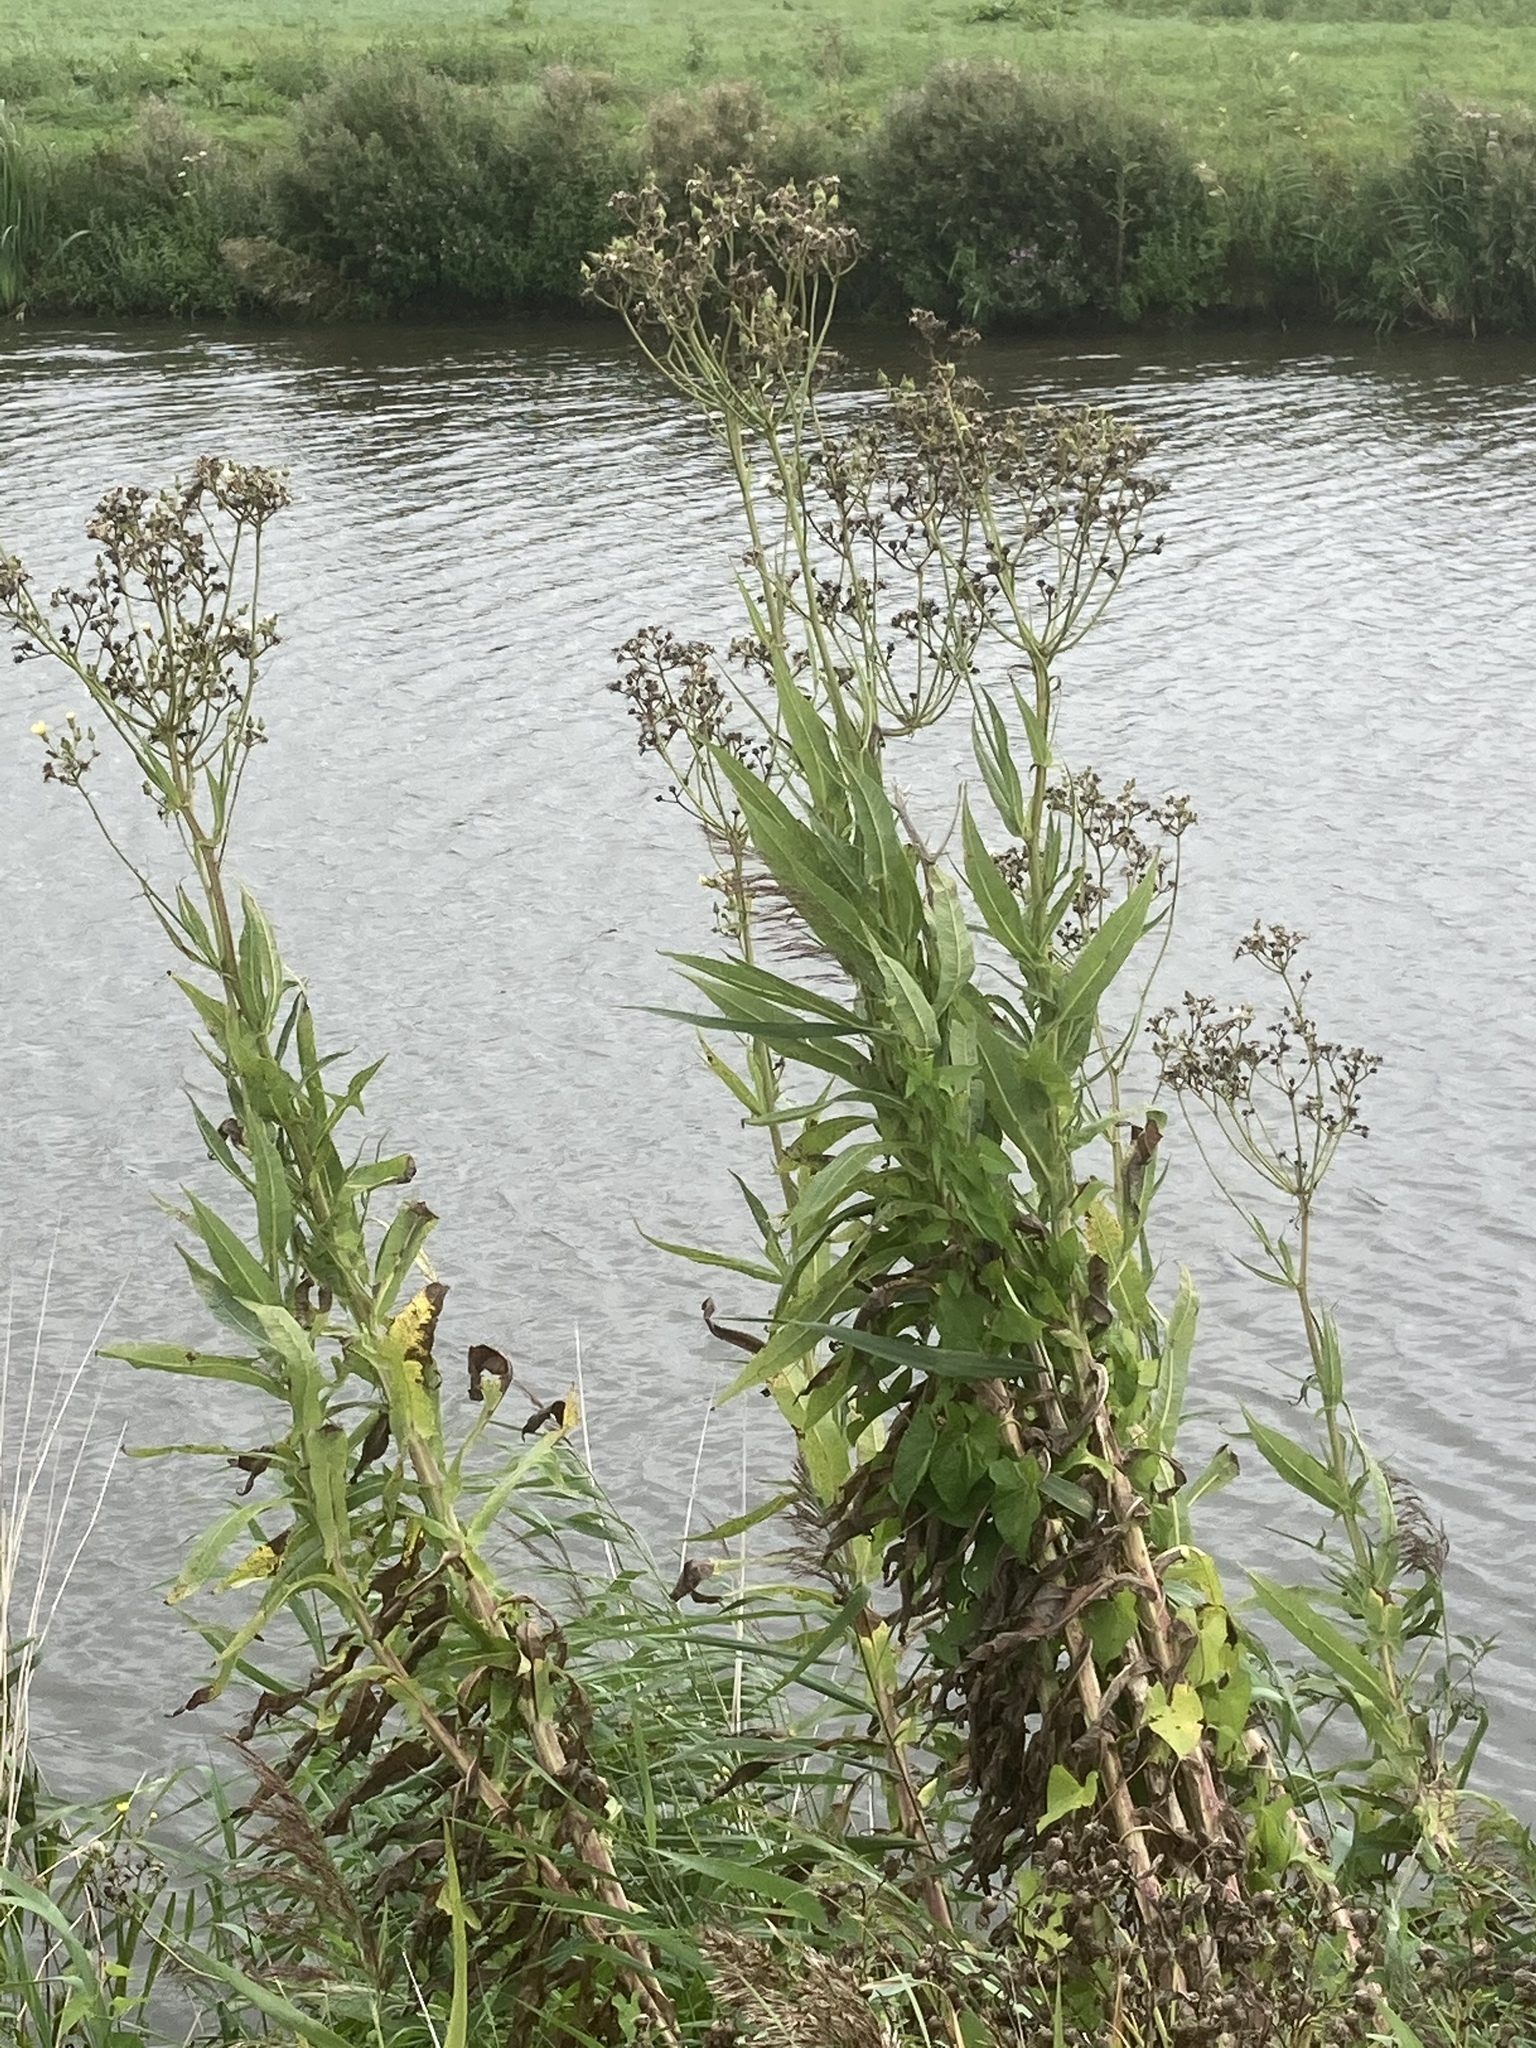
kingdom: Plantae
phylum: Tracheophyta
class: Magnoliopsida
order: Asterales
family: Asteraceae
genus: Sonchus
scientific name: Sonchus palustris
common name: Marsh sow-thistle
